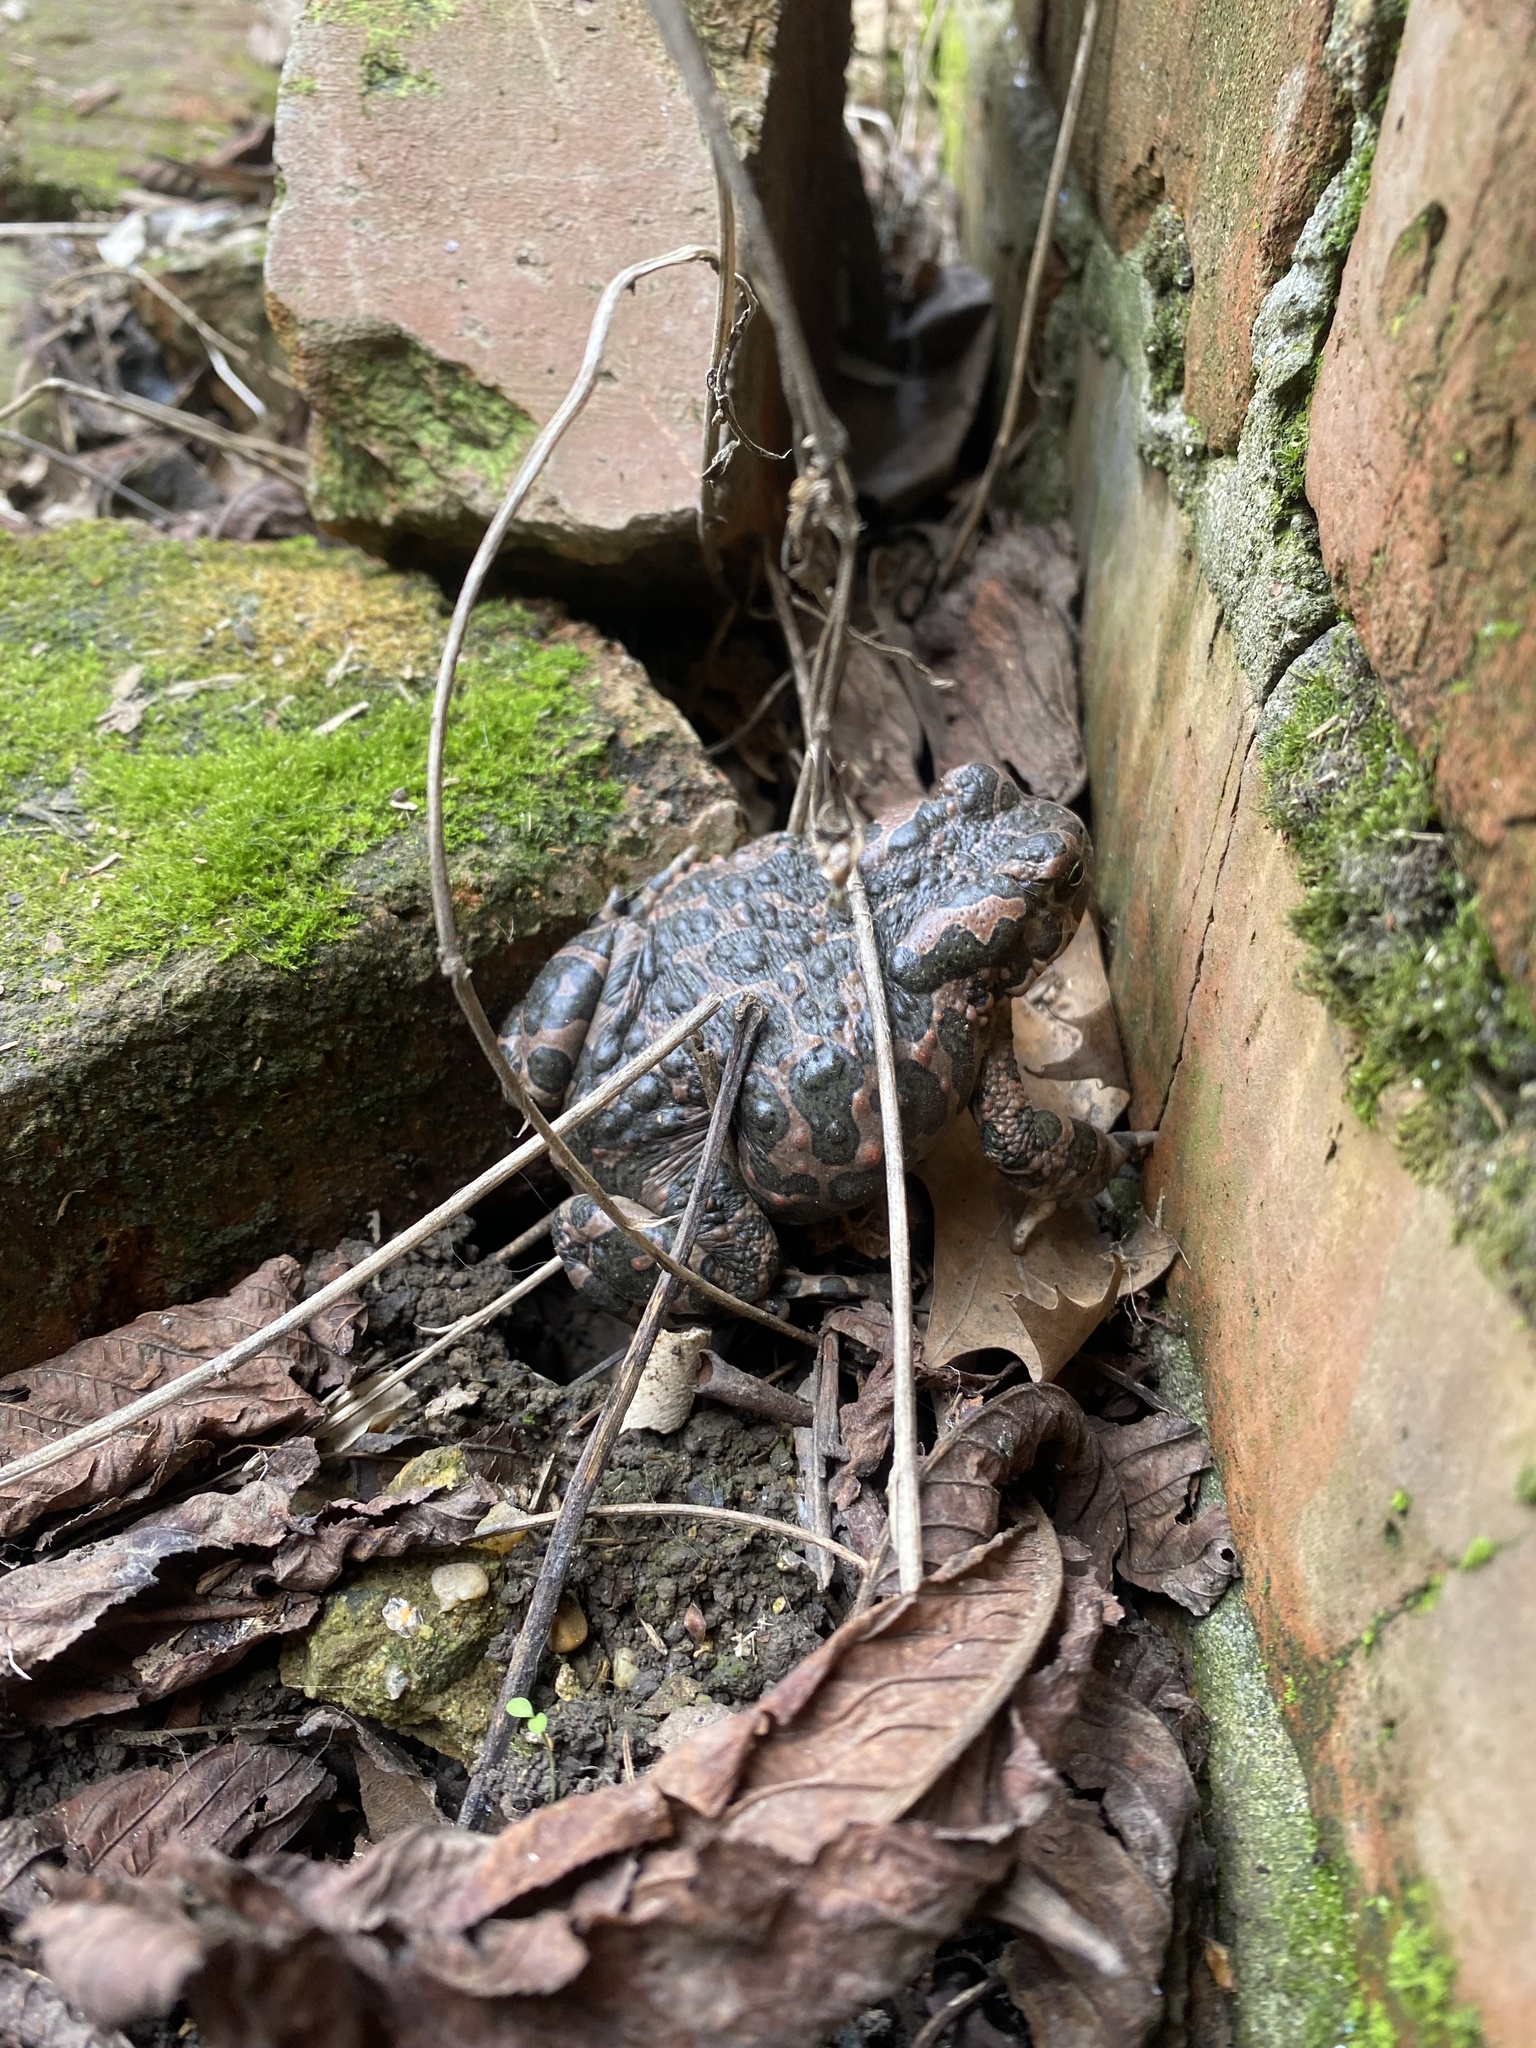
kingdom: Animalia
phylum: Chordata
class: Amphibia
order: Anura
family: Bufonidae
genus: Bufotes
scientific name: Bufotes viridis
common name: European green toad
